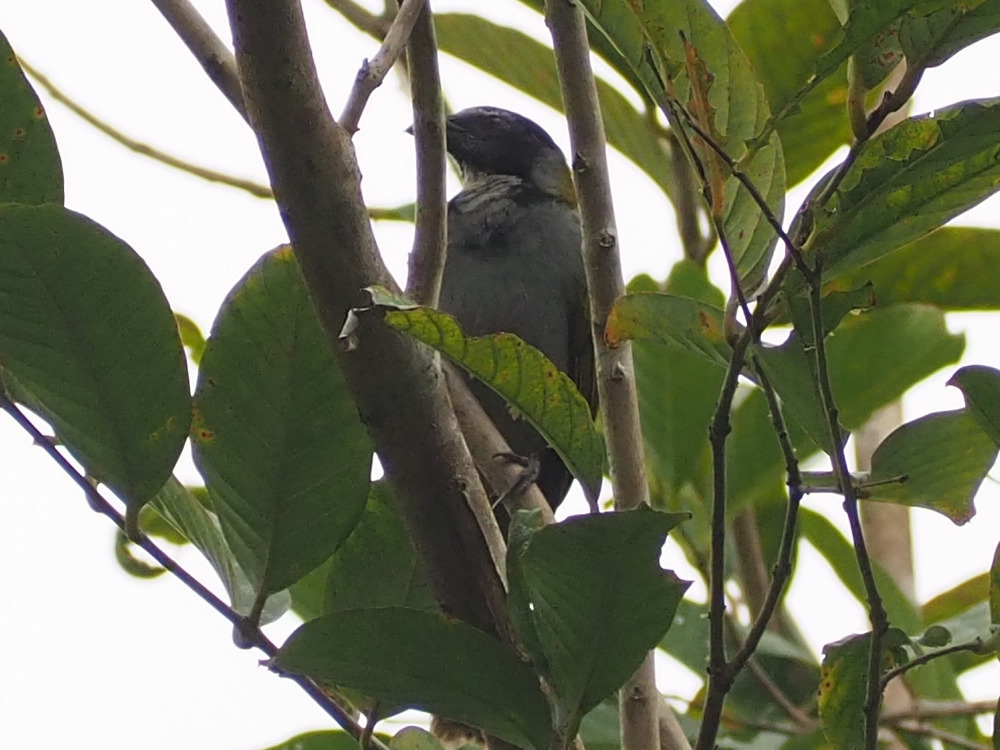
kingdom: Animalia
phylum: Chordata
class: Aves
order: Passeriformes
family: Thraupidae
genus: Saltator
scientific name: Saltator atriceps
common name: Black-headed saltator
